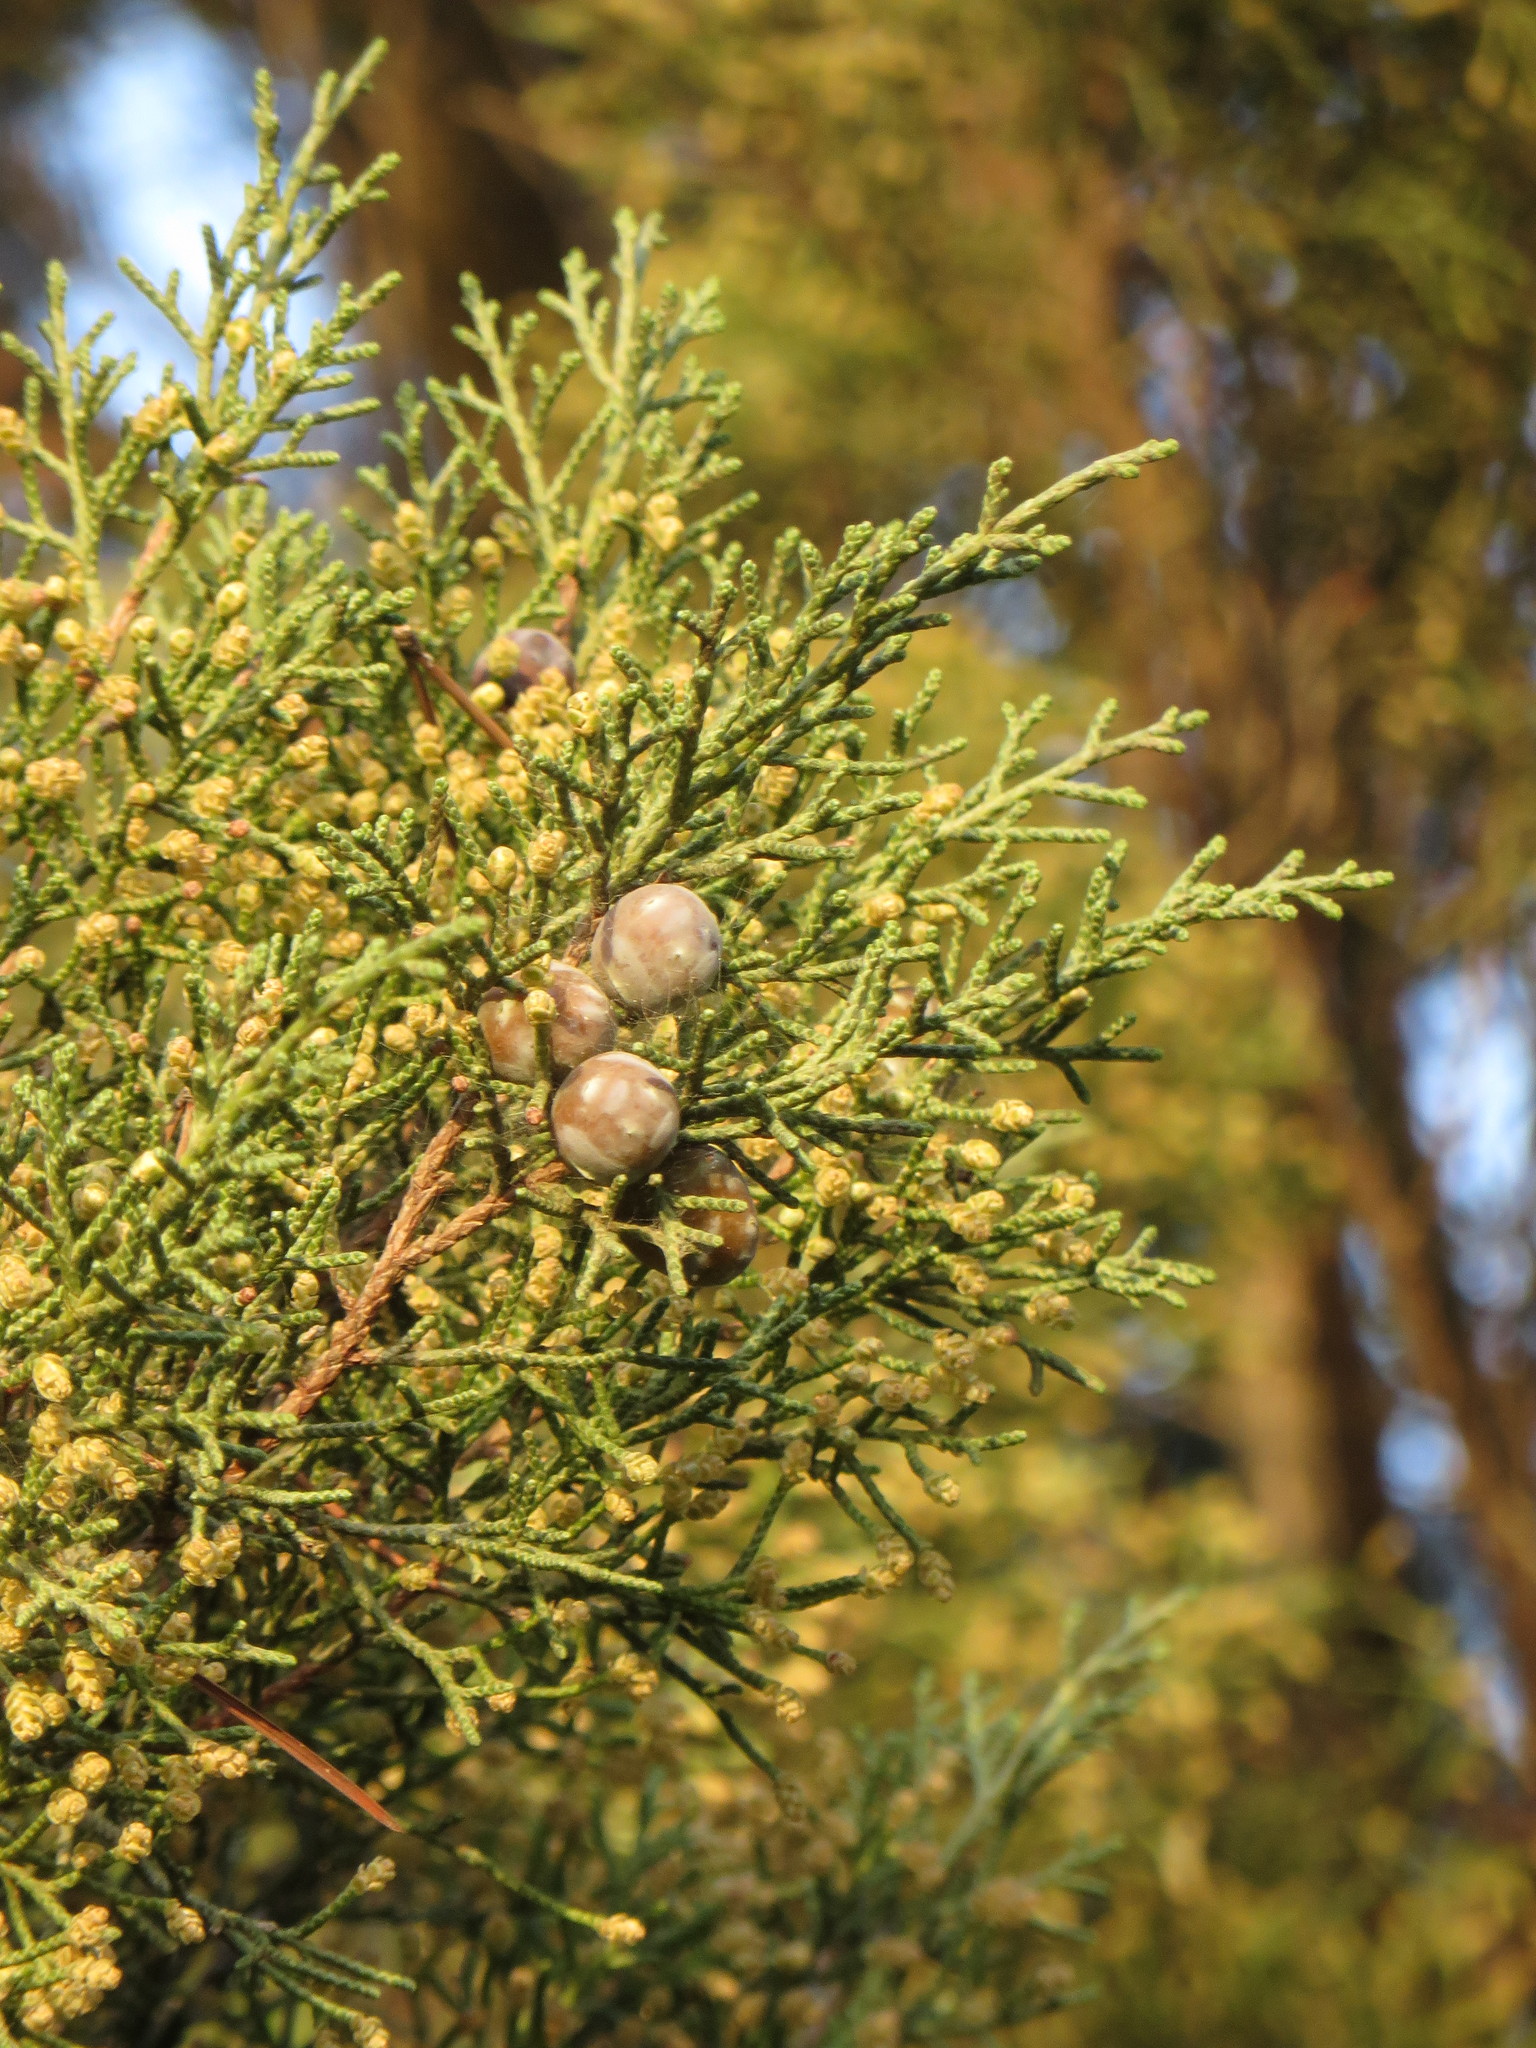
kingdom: Plantae
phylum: Tracheophyta
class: Pinopsida
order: Pinales
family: Cupressaceae
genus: Juniperus
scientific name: Juniperus phoenicea
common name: Phoenician juniper
